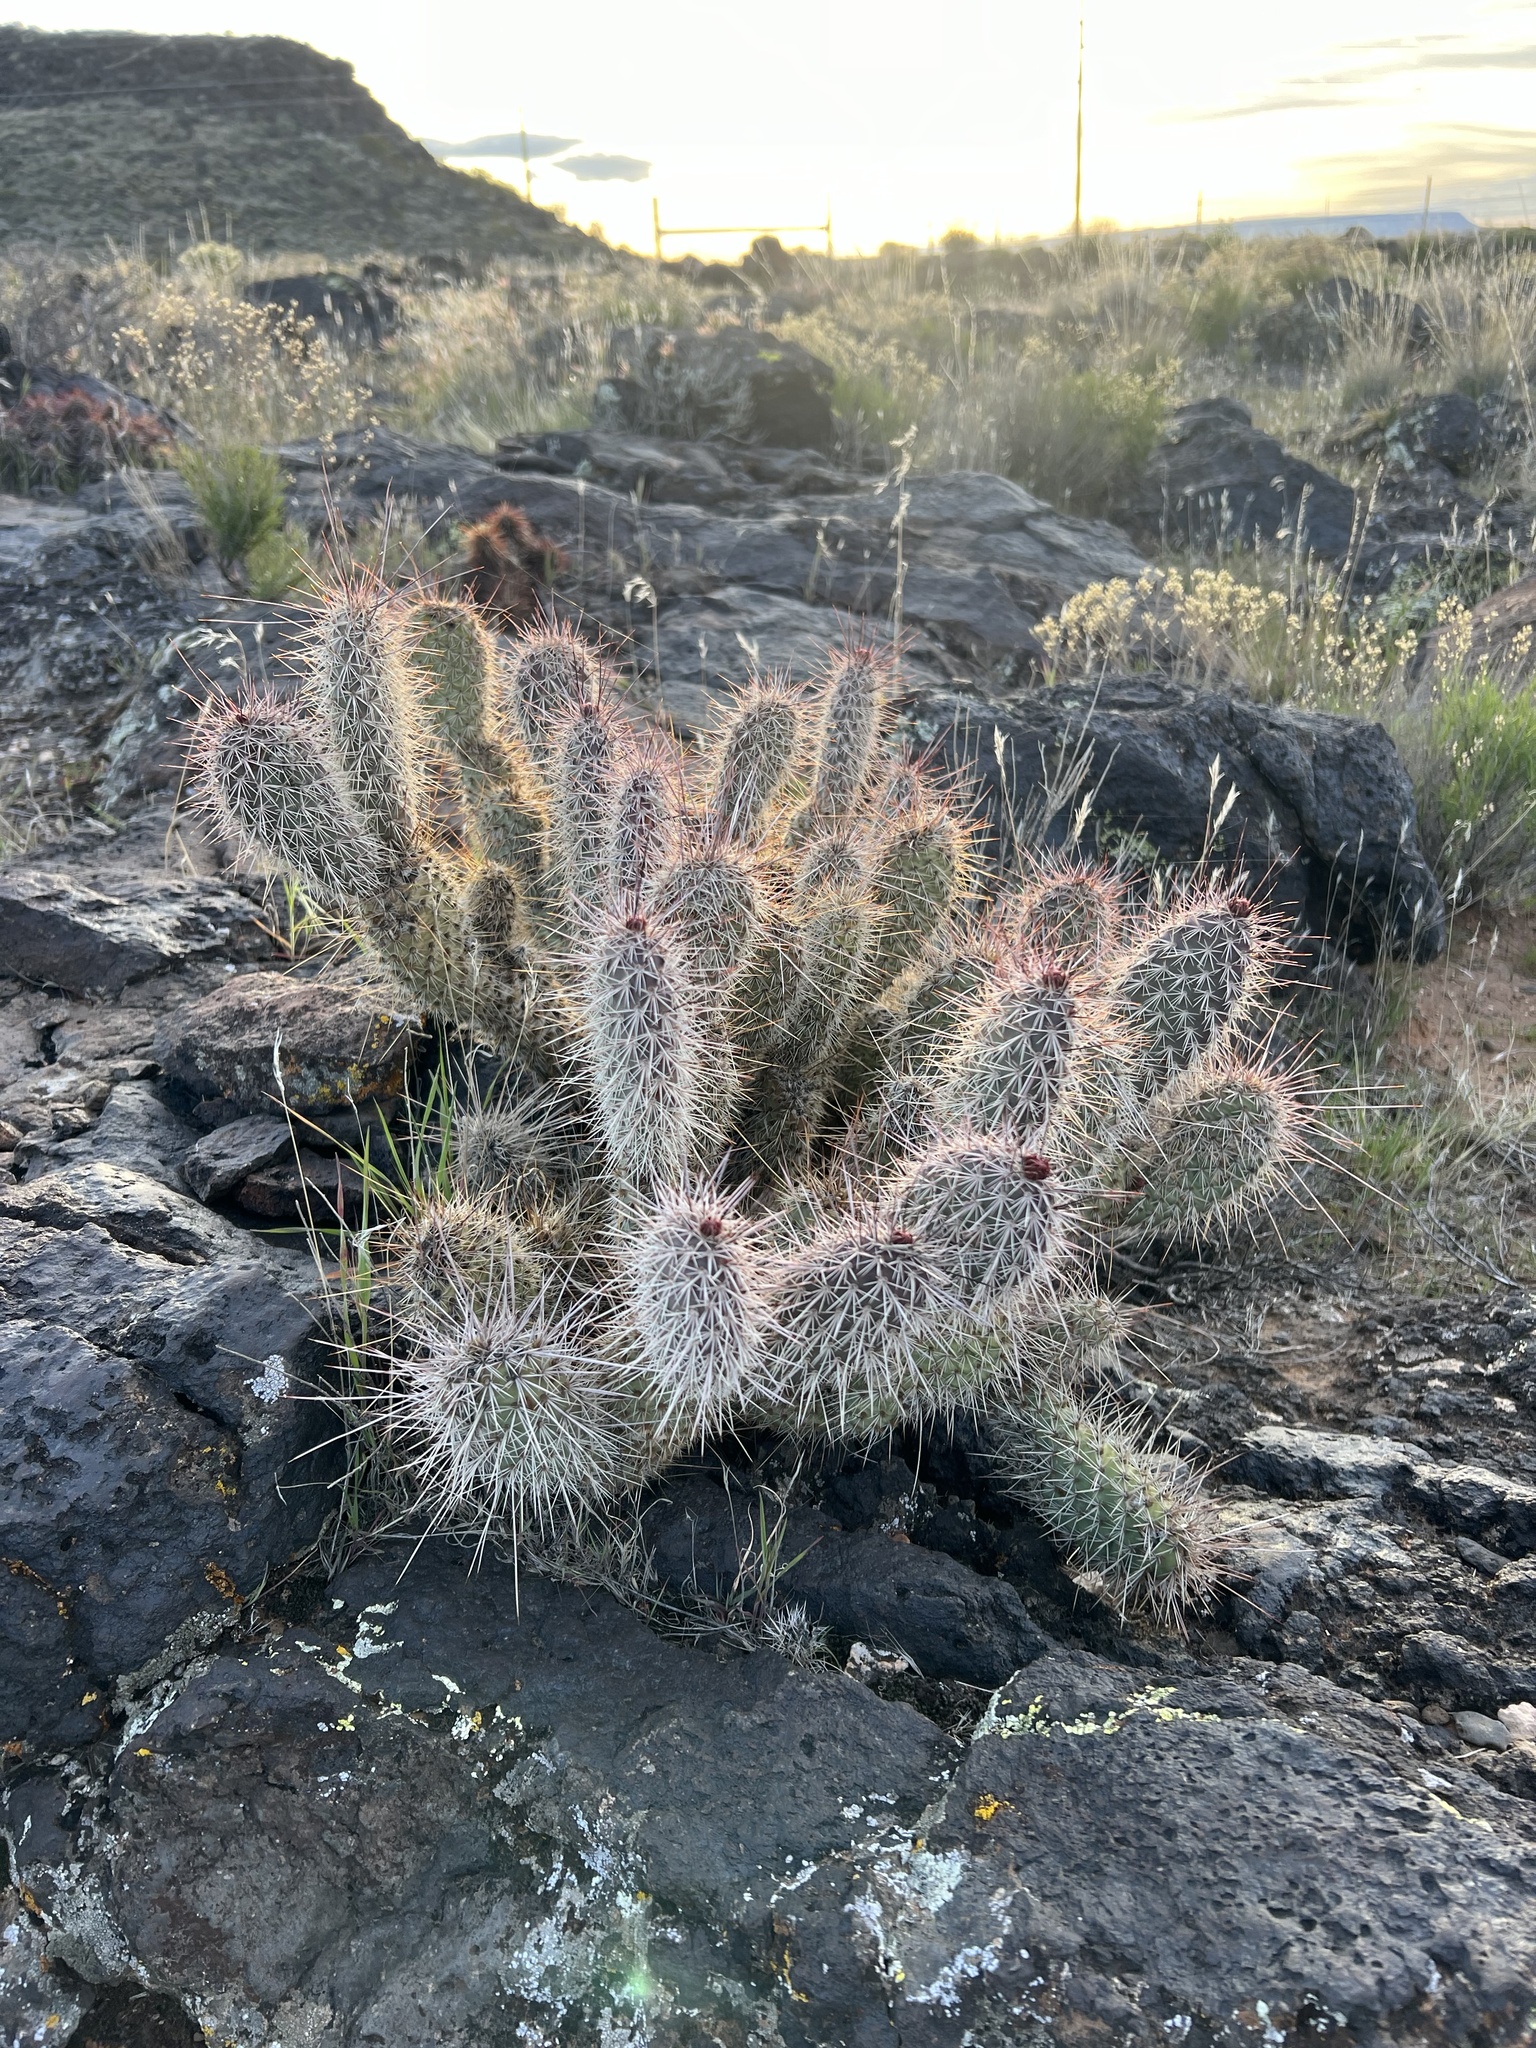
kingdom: Plantae
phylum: Tracheophyta
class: Magnoliopsida
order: Caryophyllales
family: Cactaceae
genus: Opuntia
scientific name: Opuntia polyacantha
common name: Plains prickly-pear
